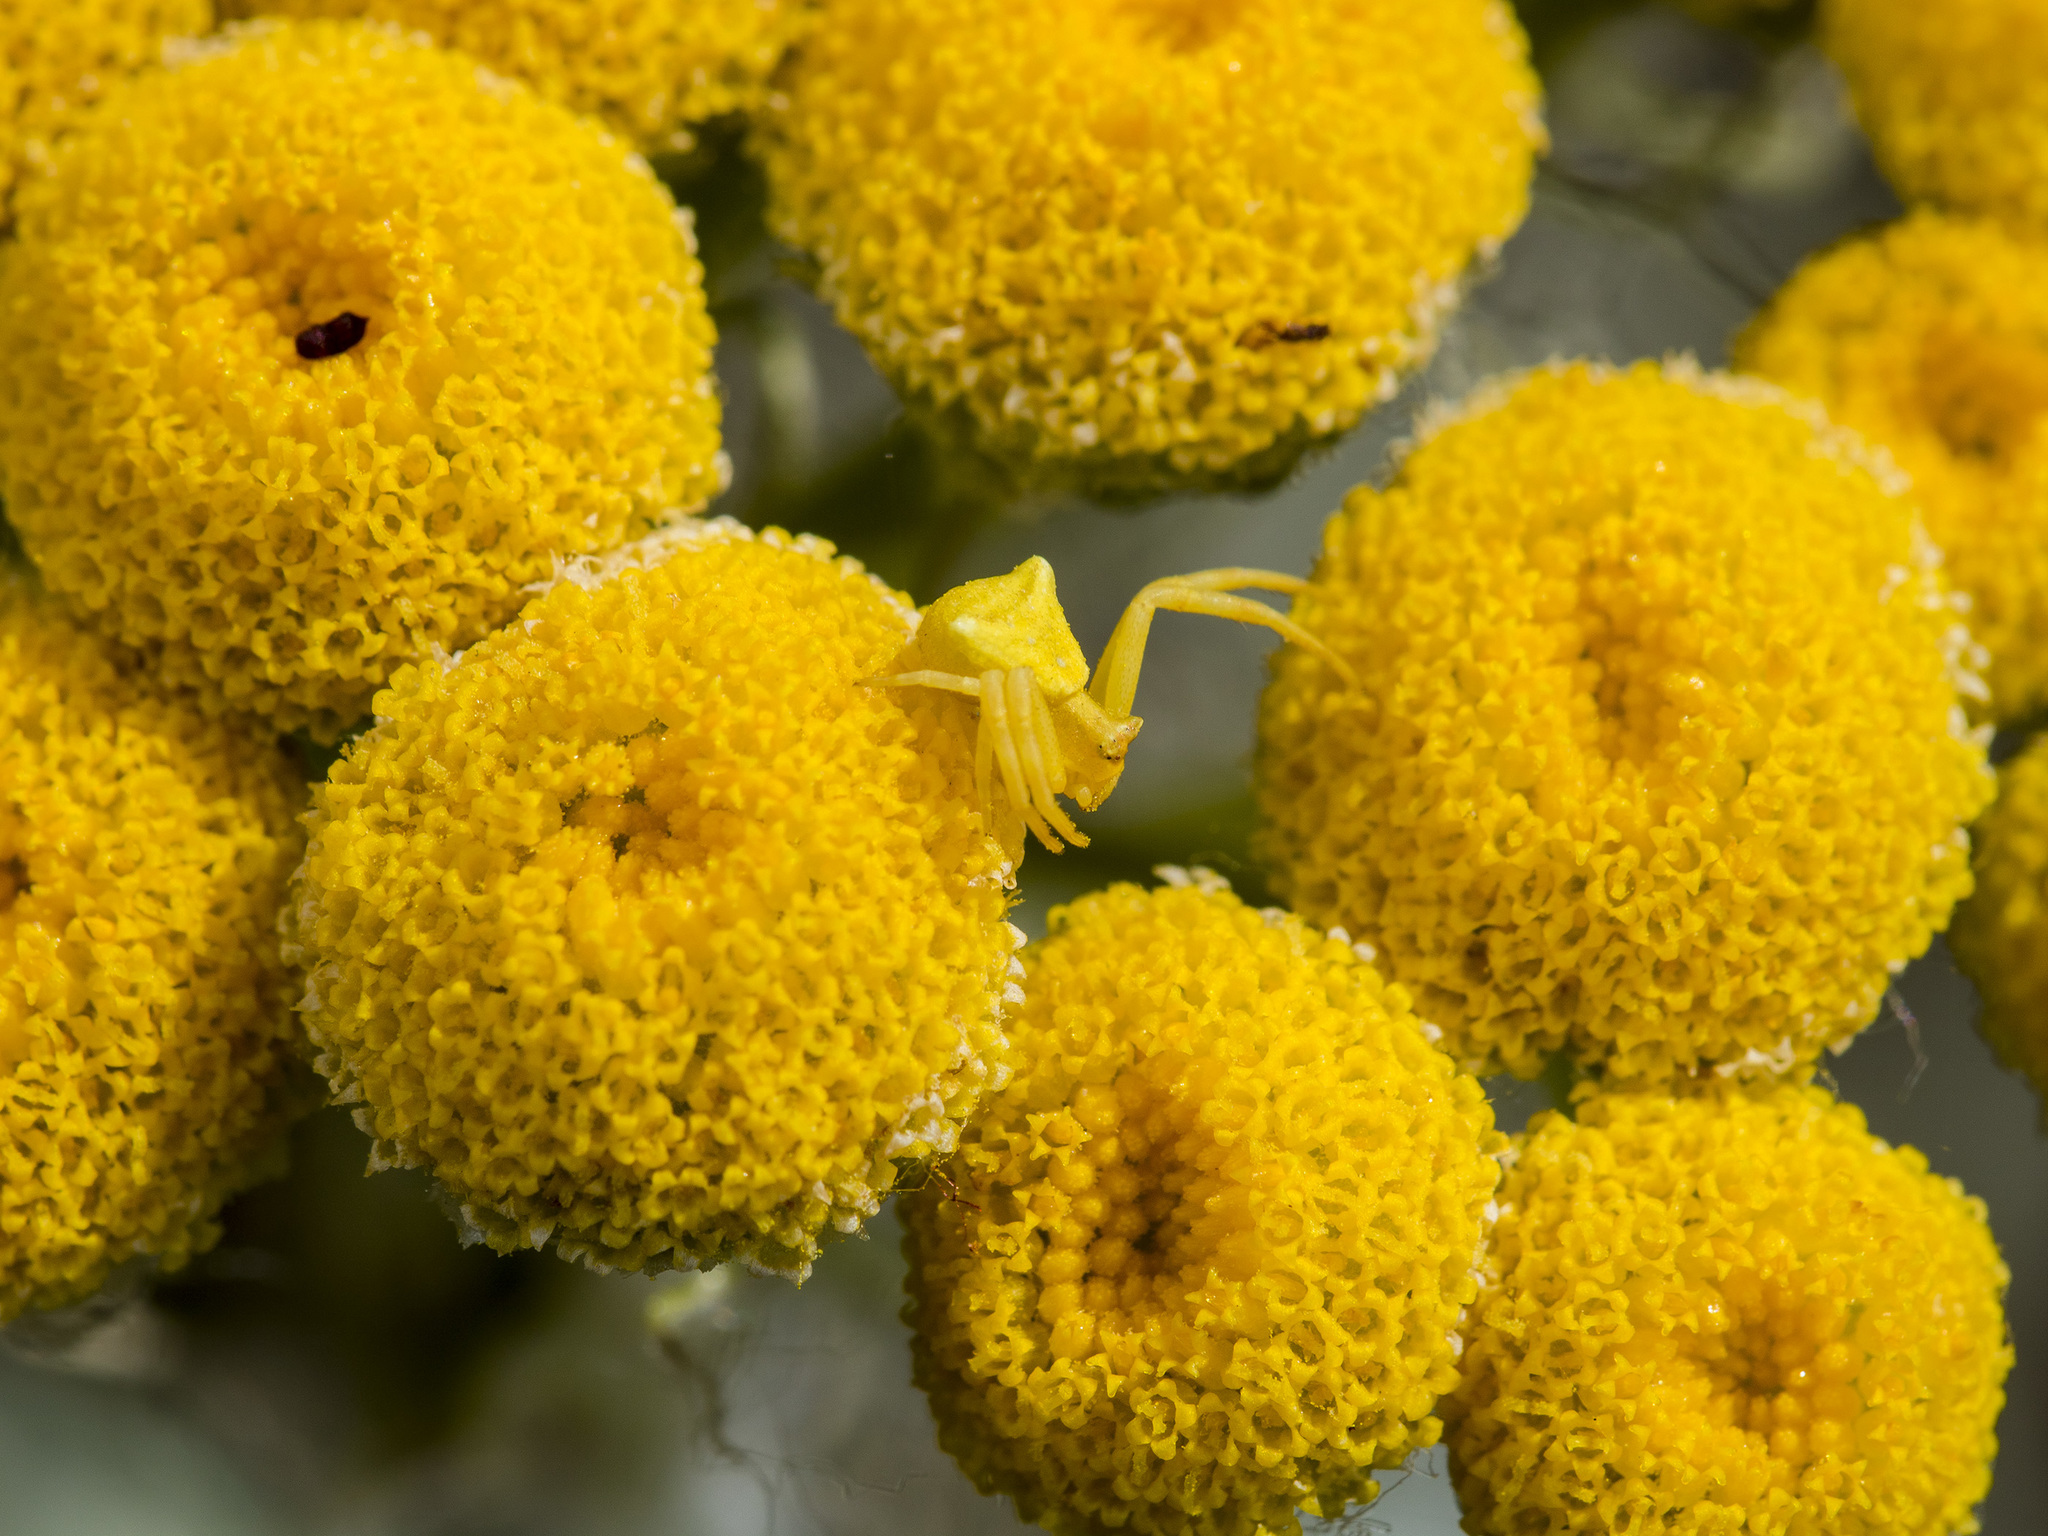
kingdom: Animalia
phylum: Arthropoda
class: Arachnida
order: Araneae
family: Thomisidae
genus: Thomisus
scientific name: Thomisus onustus
